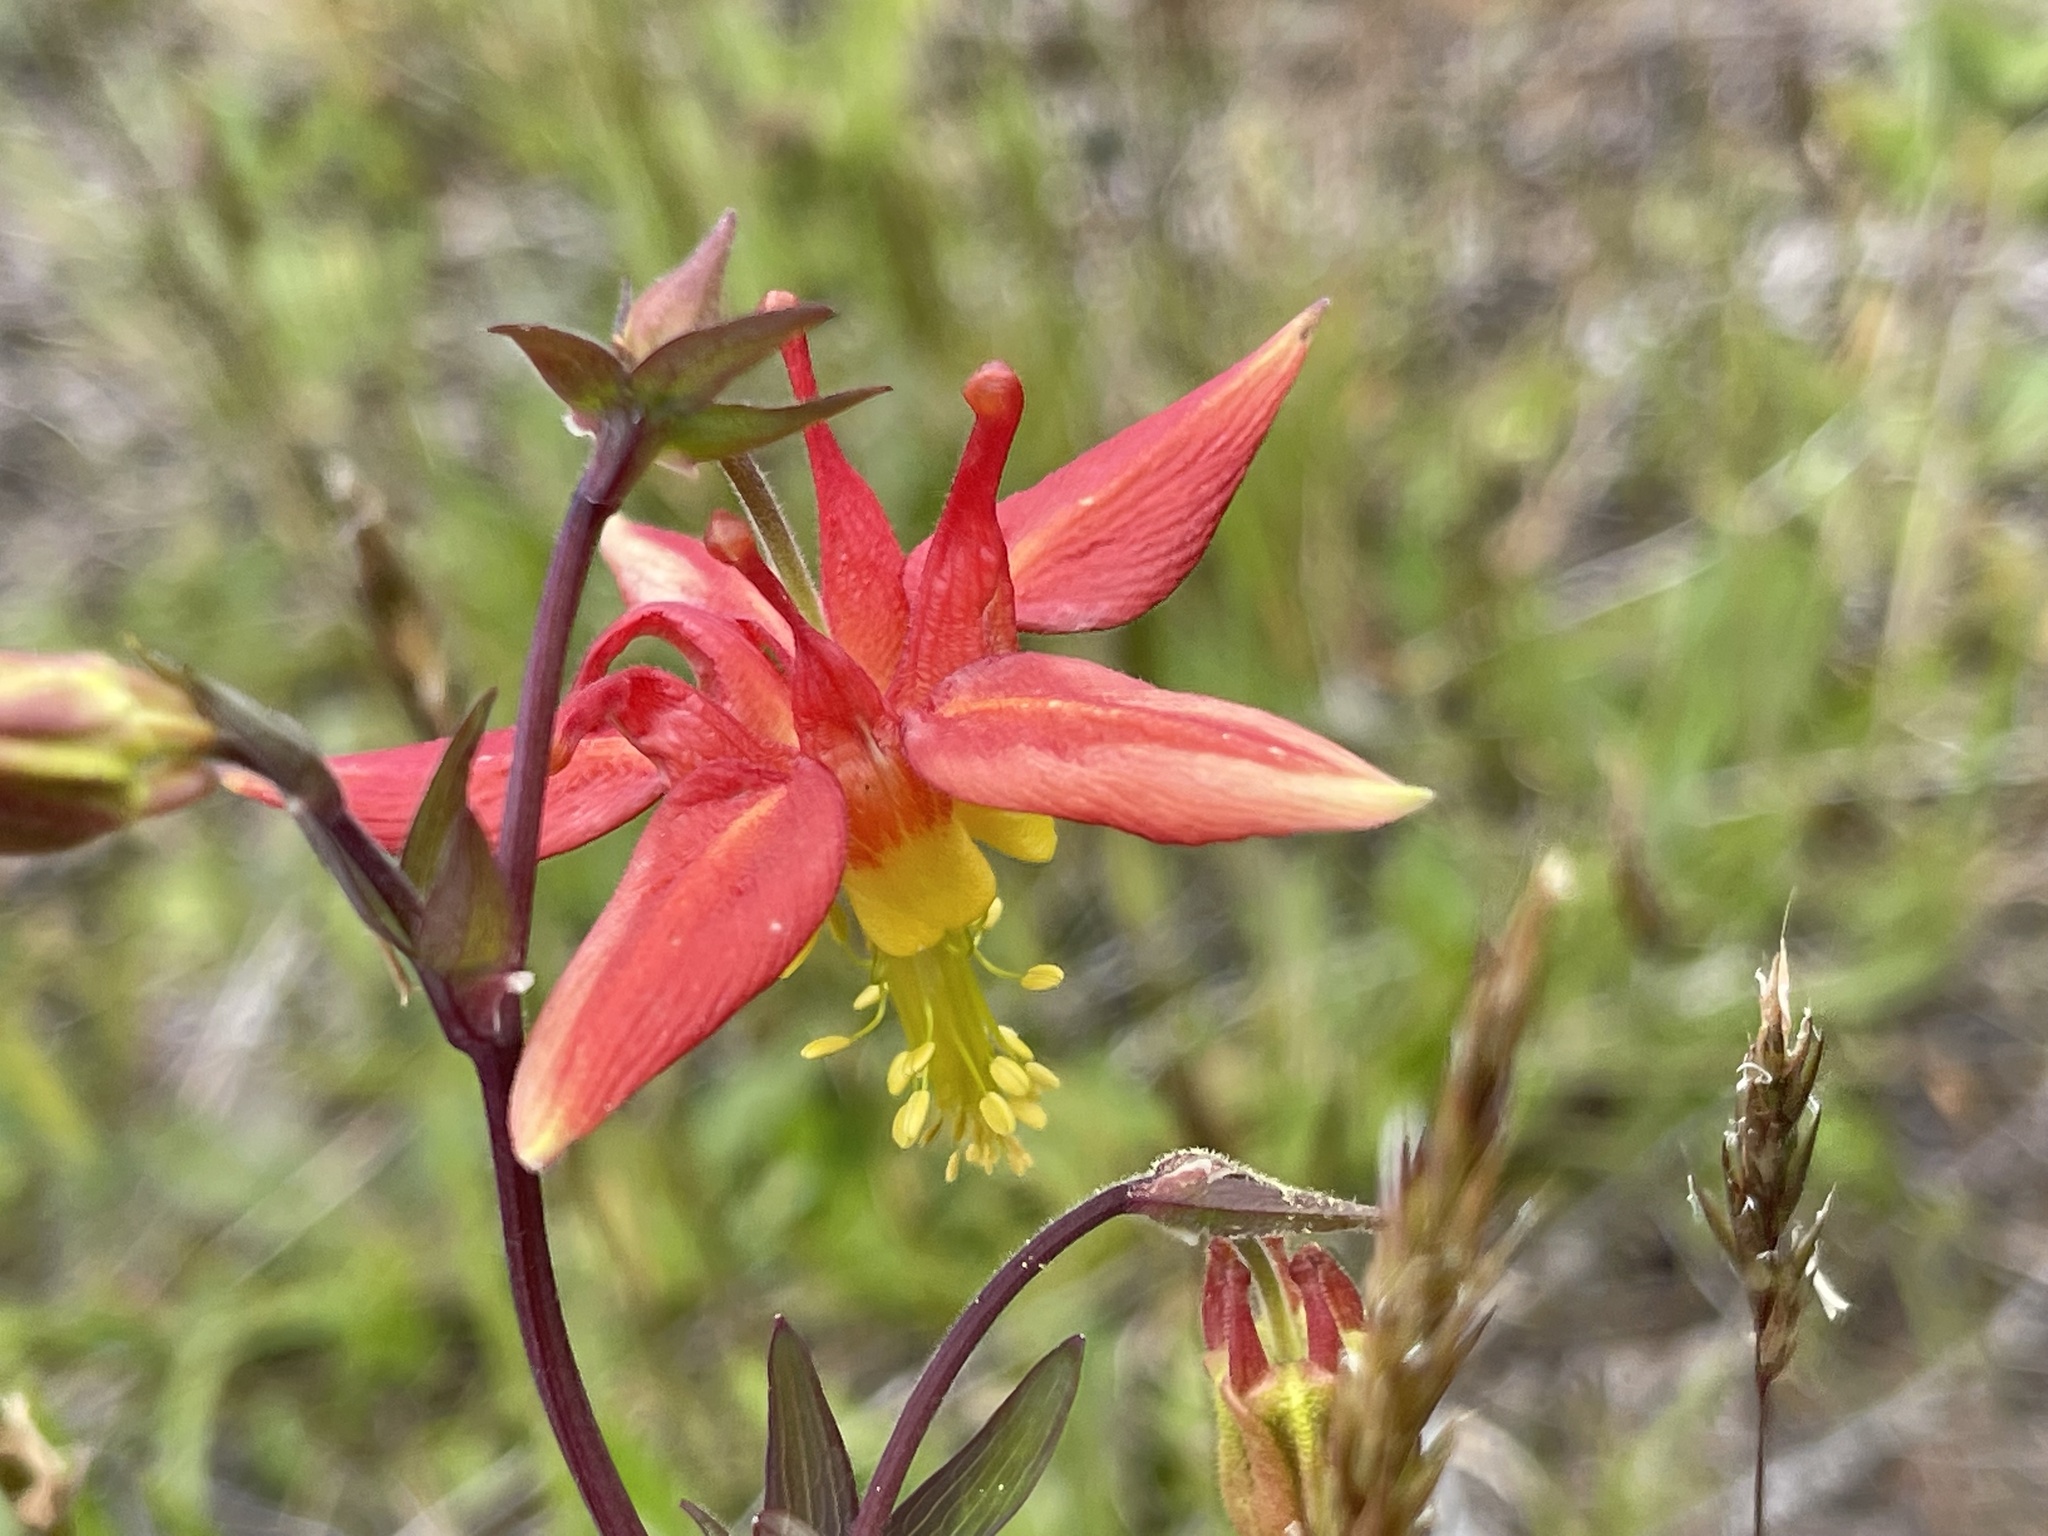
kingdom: Plantae
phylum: Tracheophyta
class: Magnoliopsida
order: Ranunculales
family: Ranunculaceae
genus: Aquilegia
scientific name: Aquilegia formosa
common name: Sitka columbine
